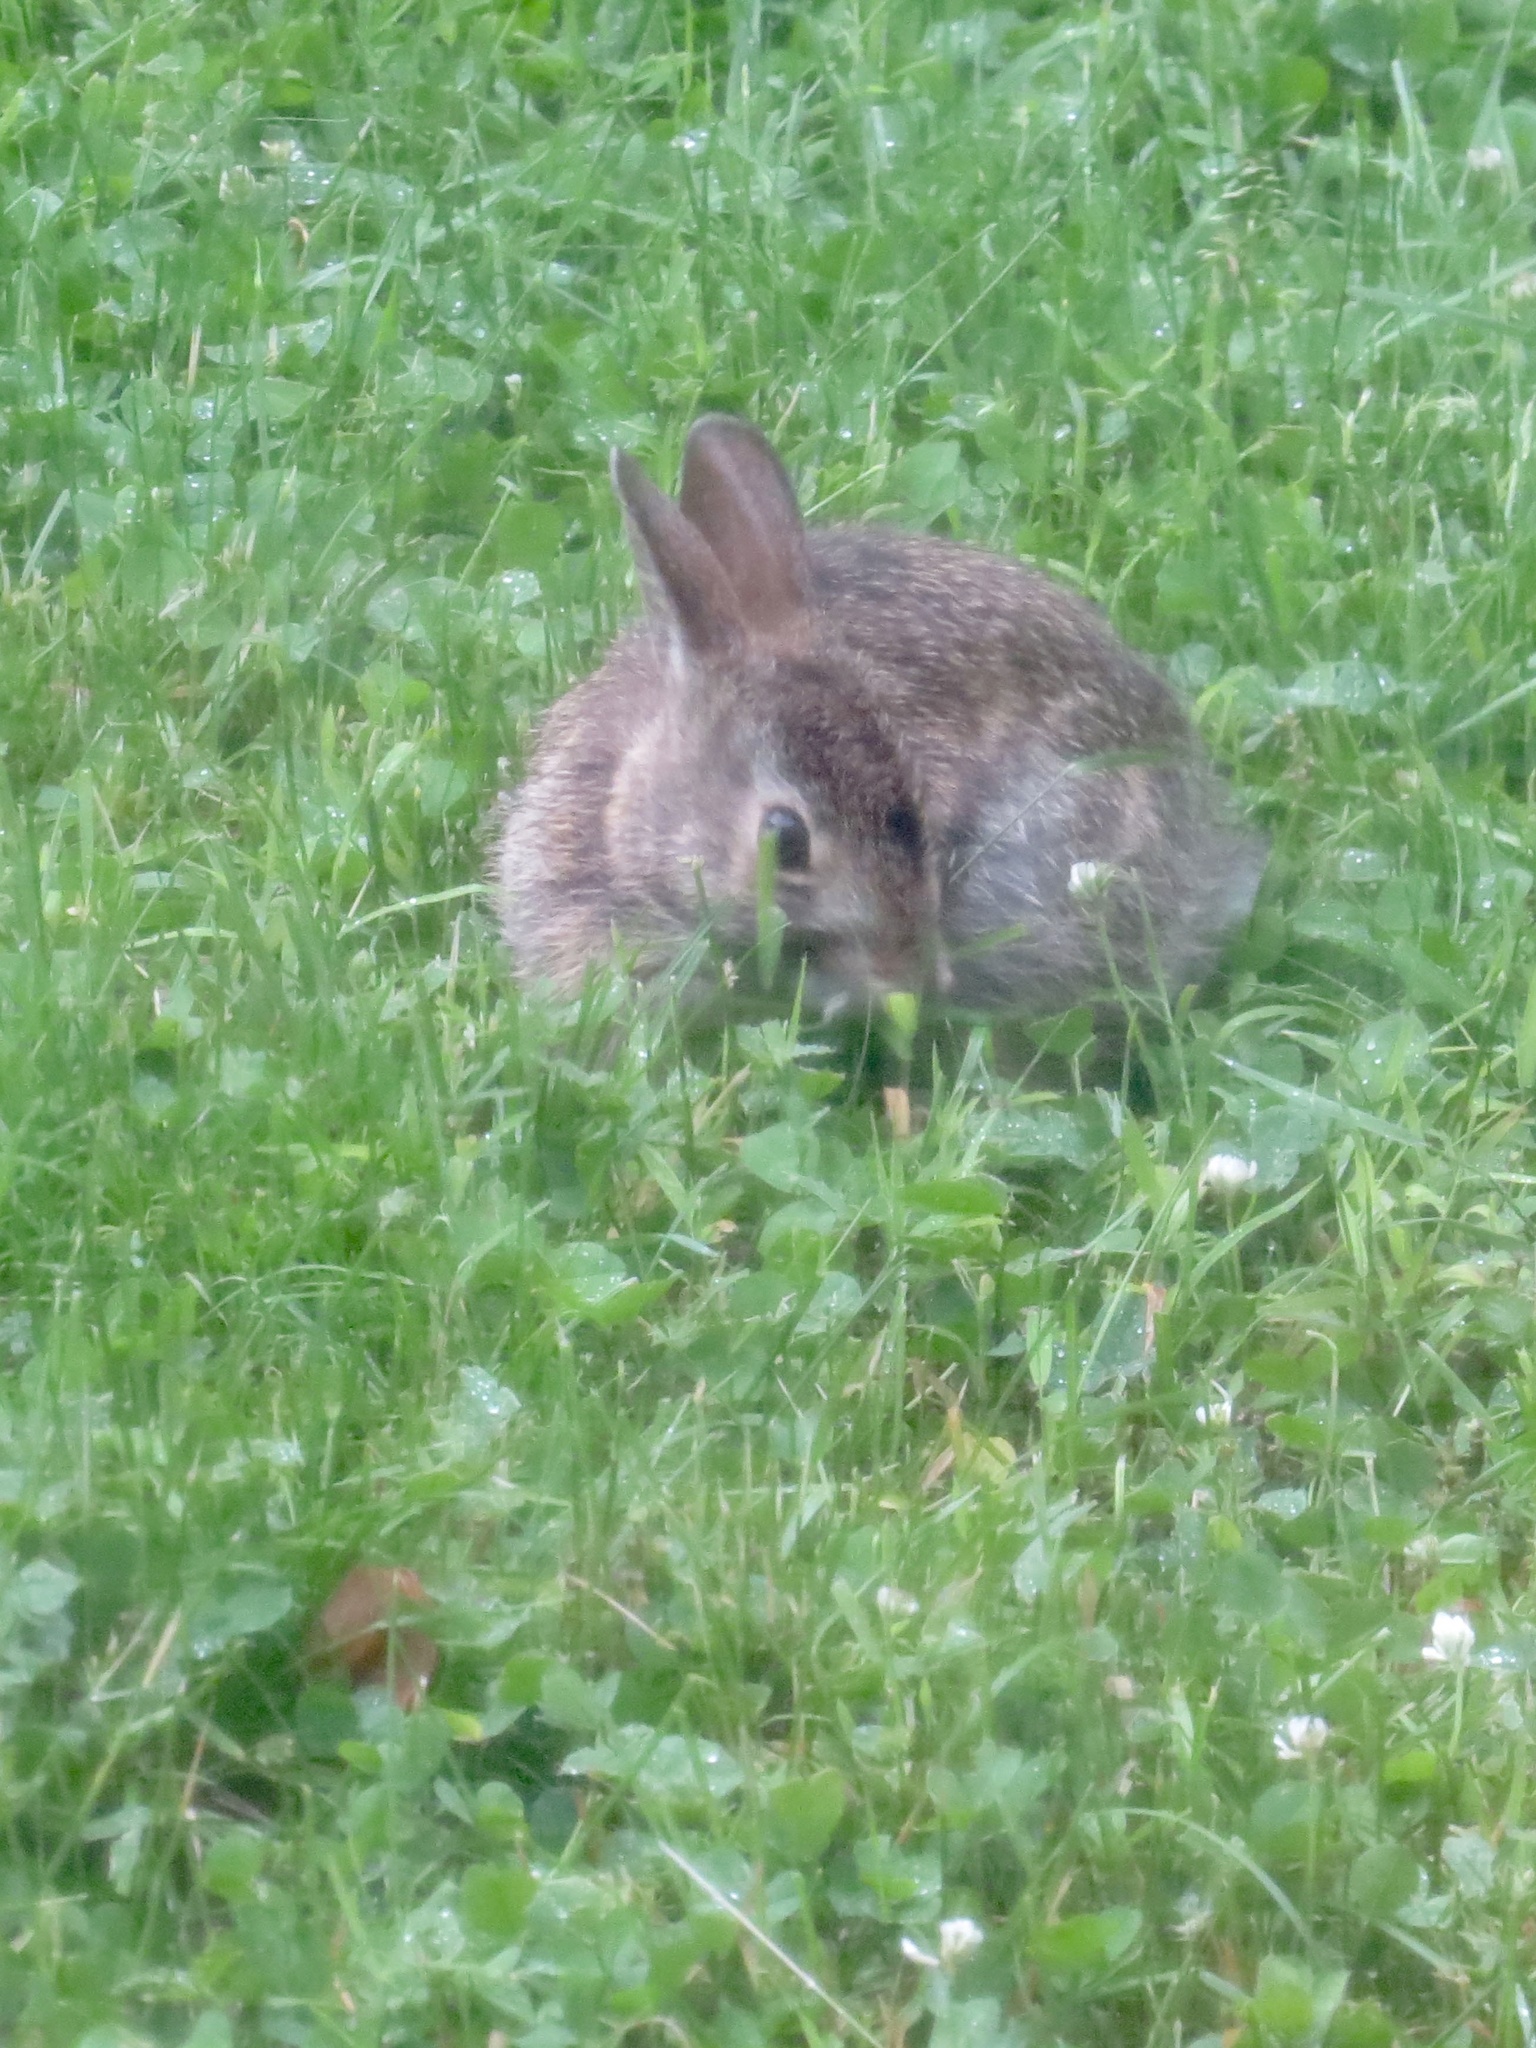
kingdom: Animalia
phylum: Chordata
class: Mammalia
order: Lagomorpha
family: Leporidae
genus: Sylvilagus
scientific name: Sylvilagus floridanus
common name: Eastern cottontail
